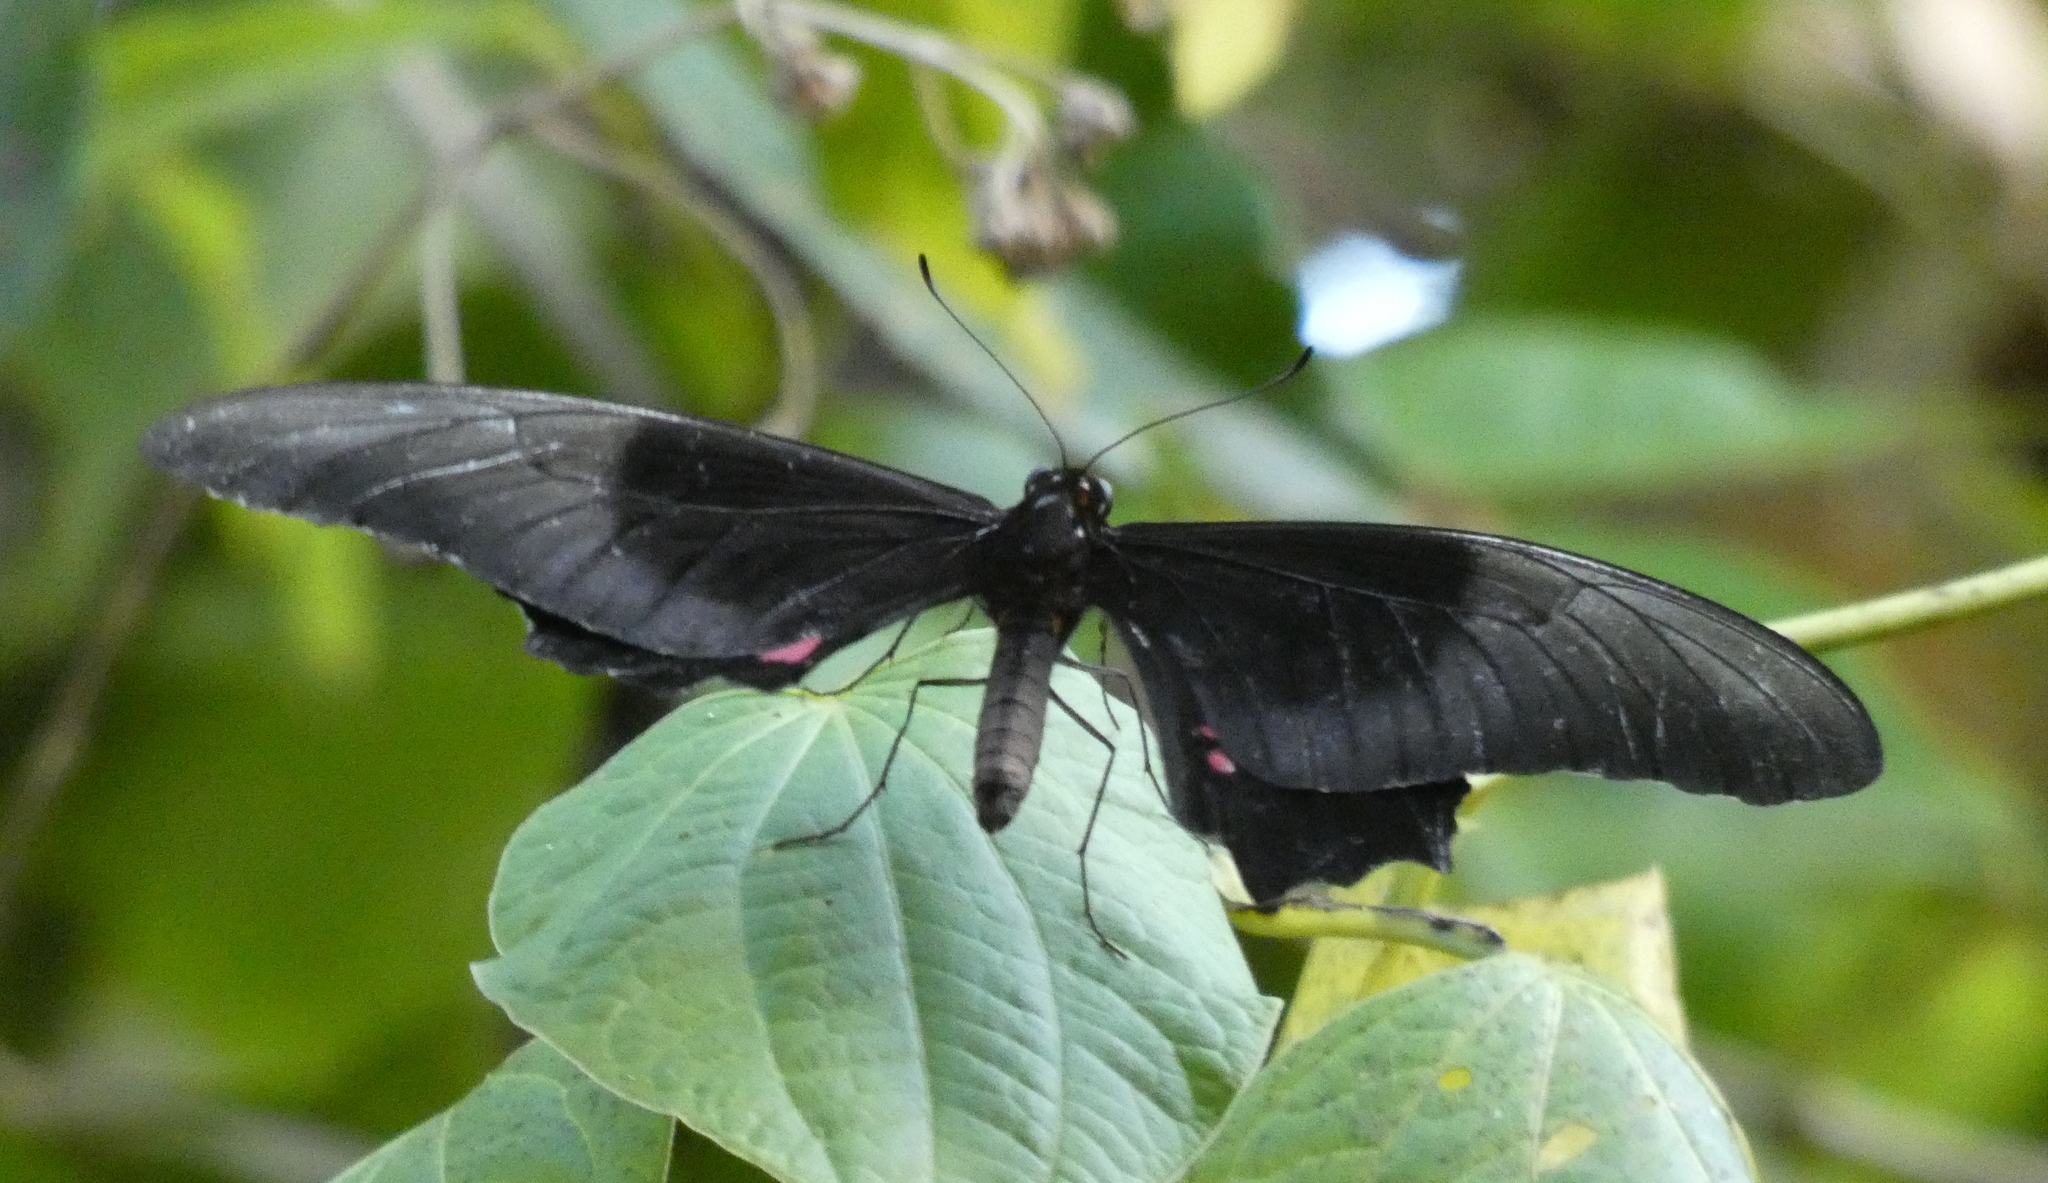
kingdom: Animalia
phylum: Arthropoda
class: Insecta
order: Lepidoptera
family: Papilionidae
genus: Papilio
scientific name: Papilio anchisiades
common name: Idaes swallowtail
